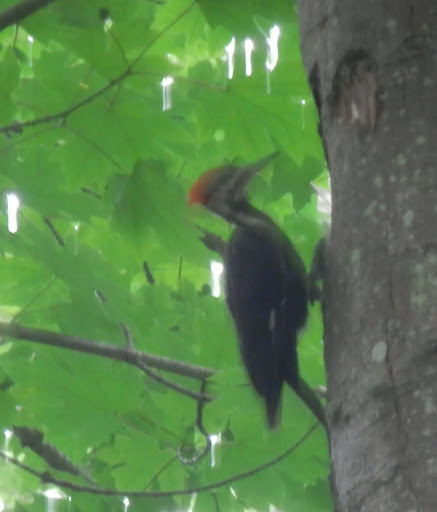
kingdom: Animalia
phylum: Chordata
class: Aves
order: Piciformes
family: Picidae
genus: Dryocopus
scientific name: Dryocopus pileatus
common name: Pileated woodpecker
